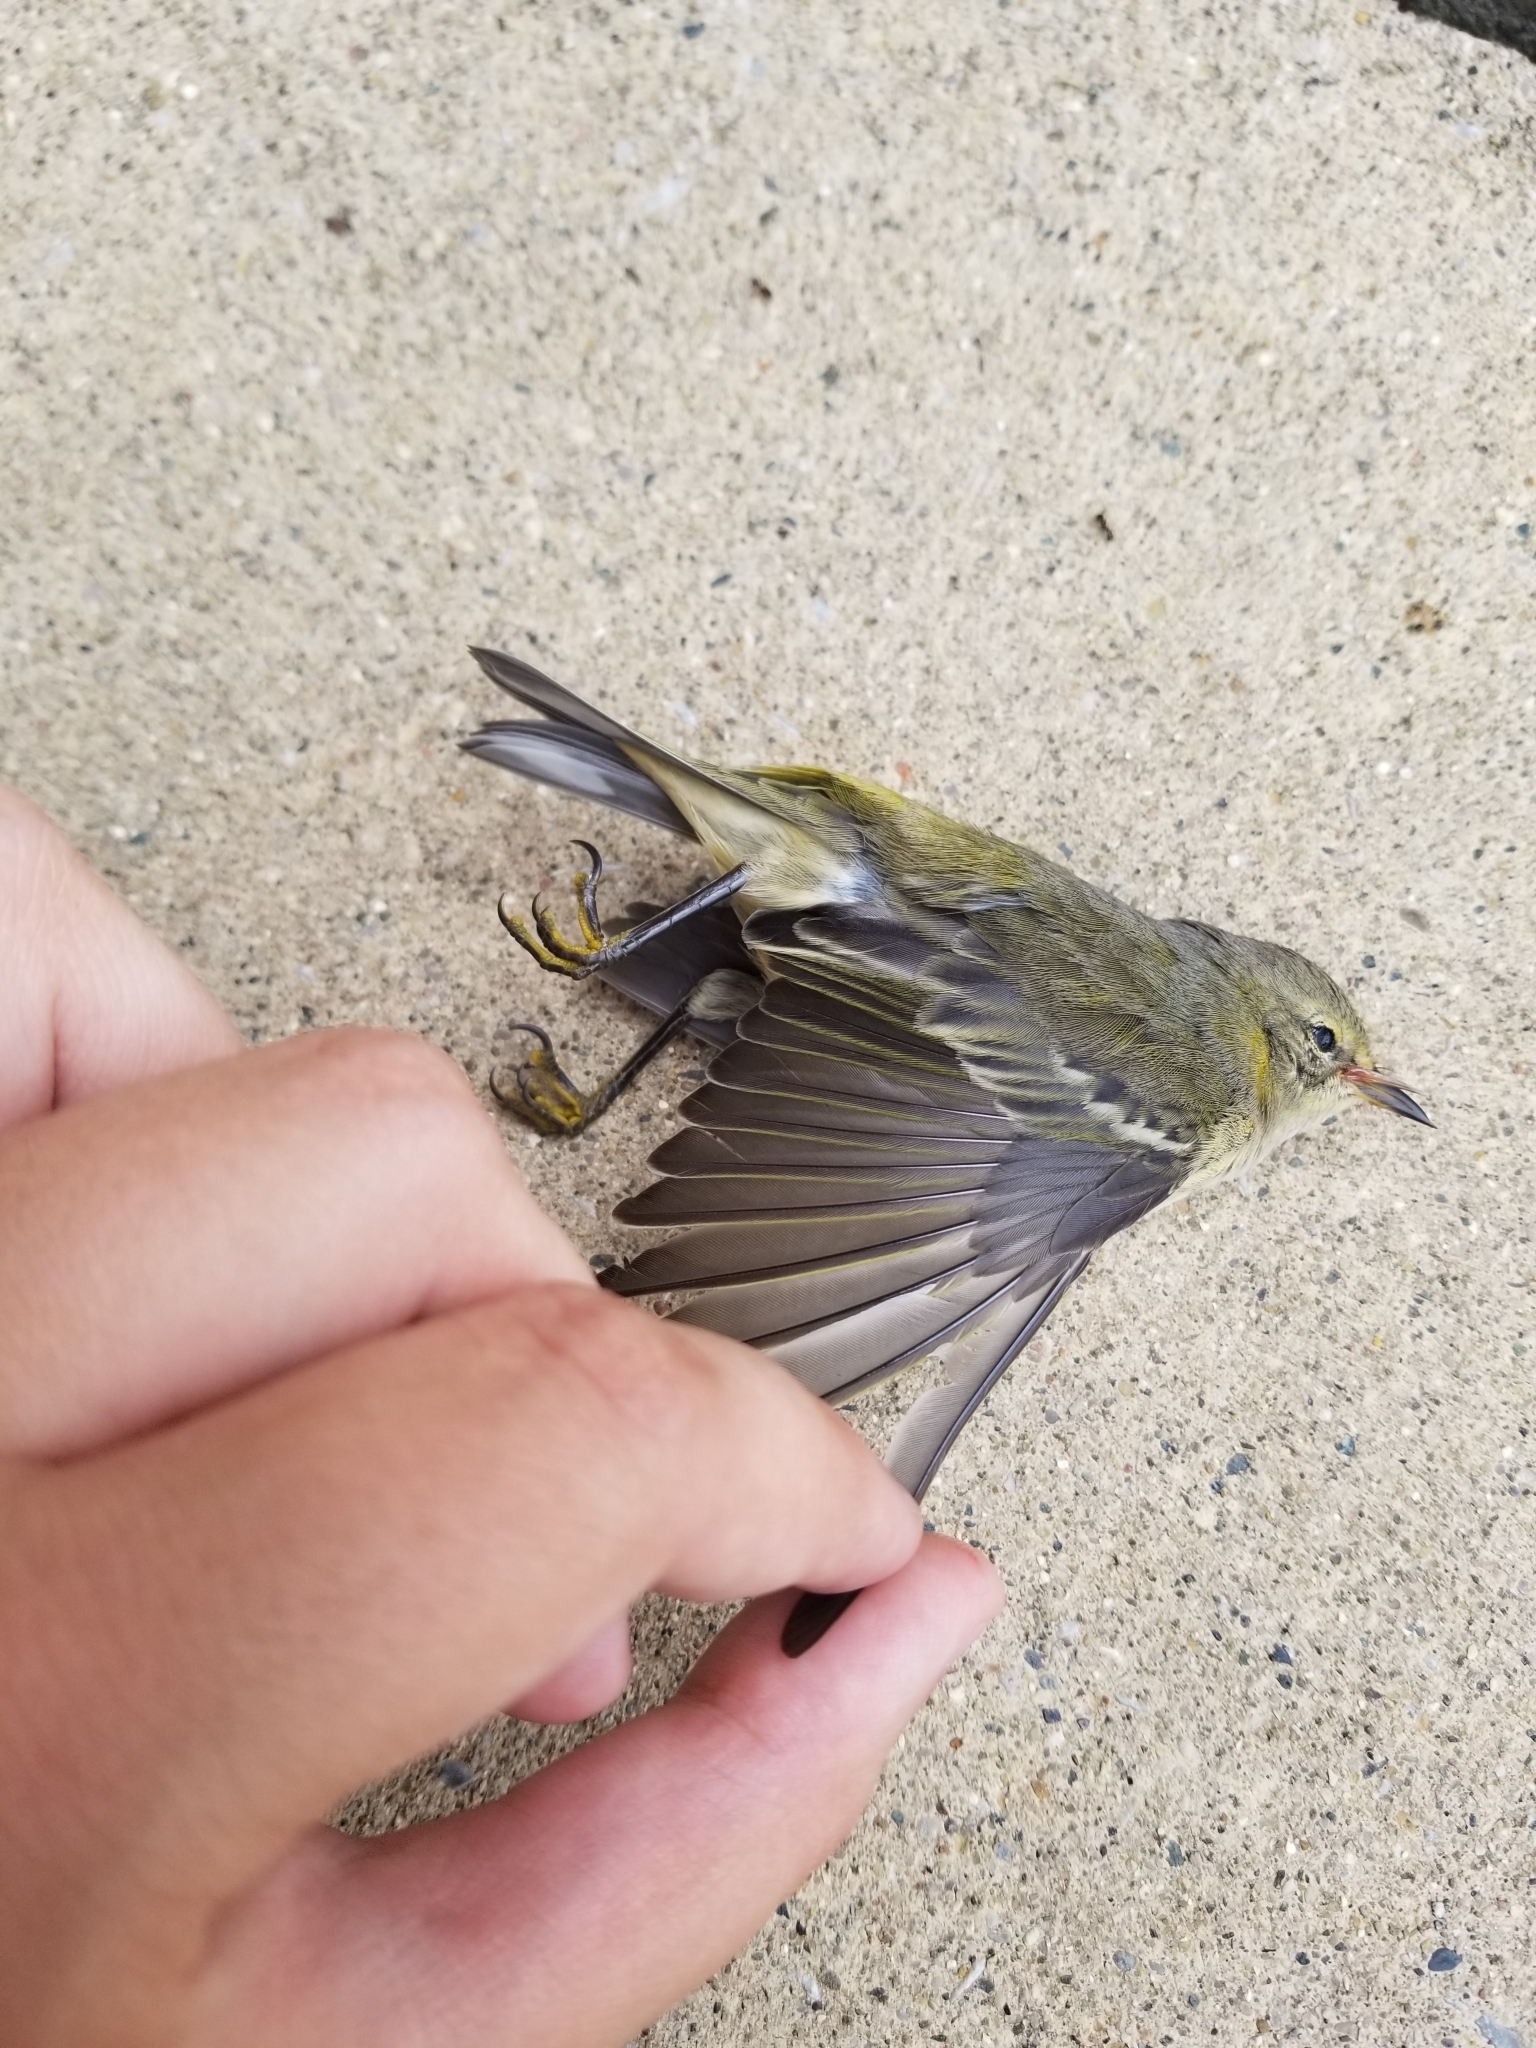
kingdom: Animalia
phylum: Chordata
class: Aves
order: Passeriformes
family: Parulidae
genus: Setophaga
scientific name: Setophaga tigrina
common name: Cape may warbler
